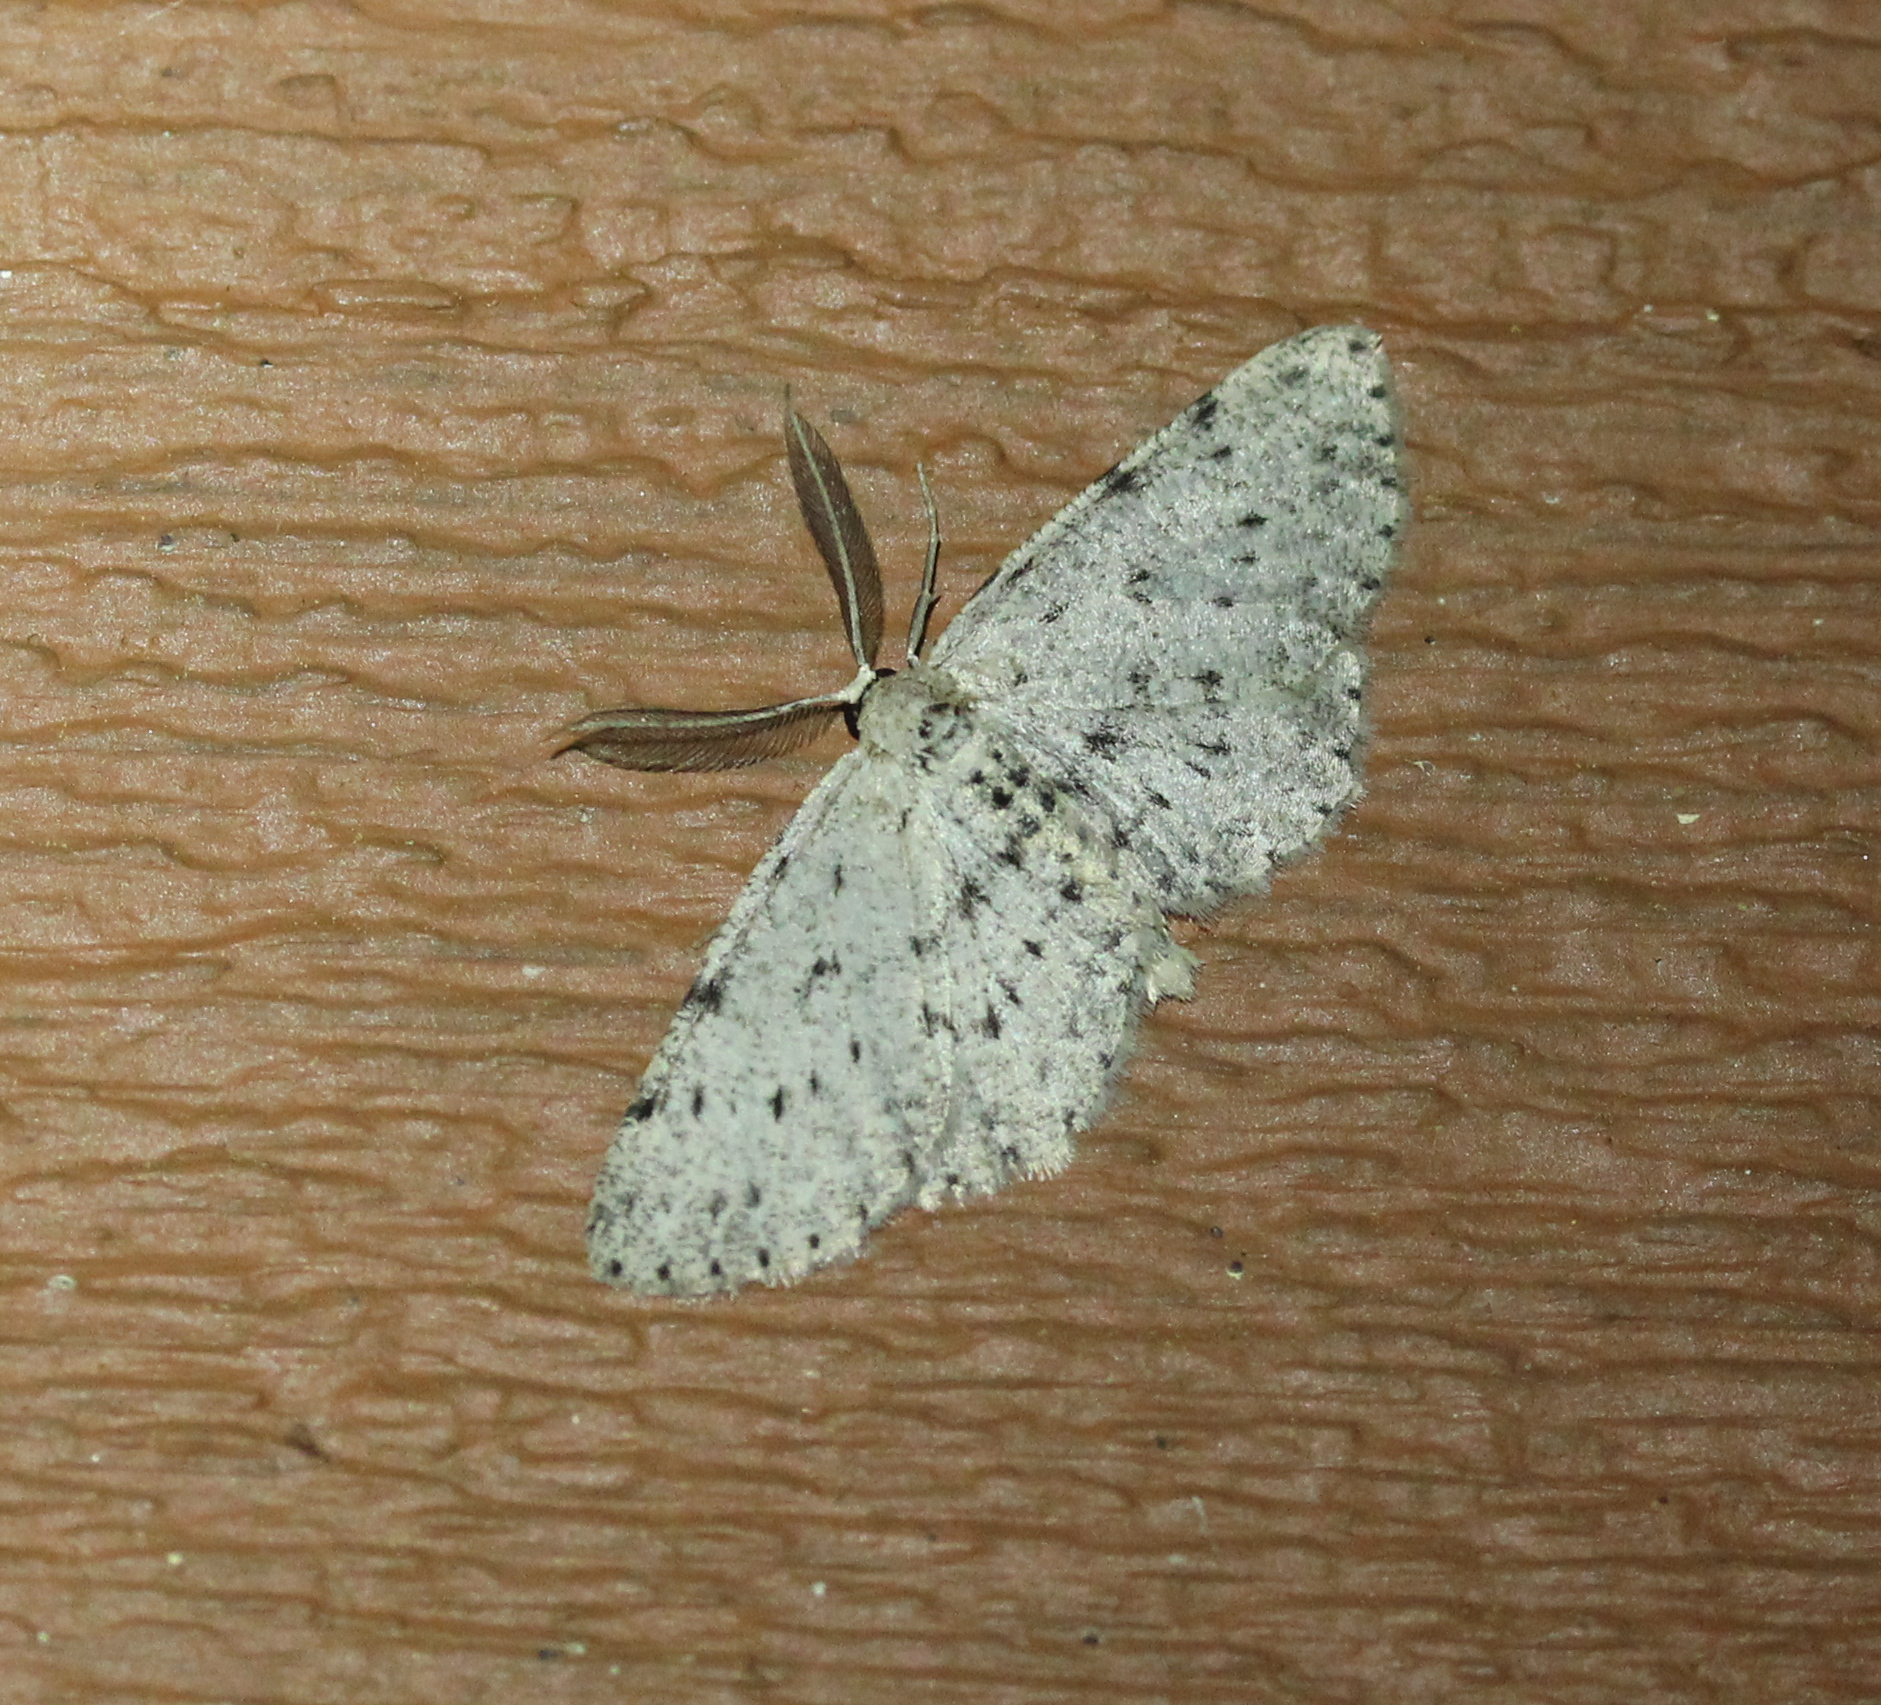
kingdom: Animalia
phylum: Arthropoda
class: Insecta
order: Lepidoptera
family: Geometridae
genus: Glena
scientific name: Glena cribrataria
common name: Dotted gray
